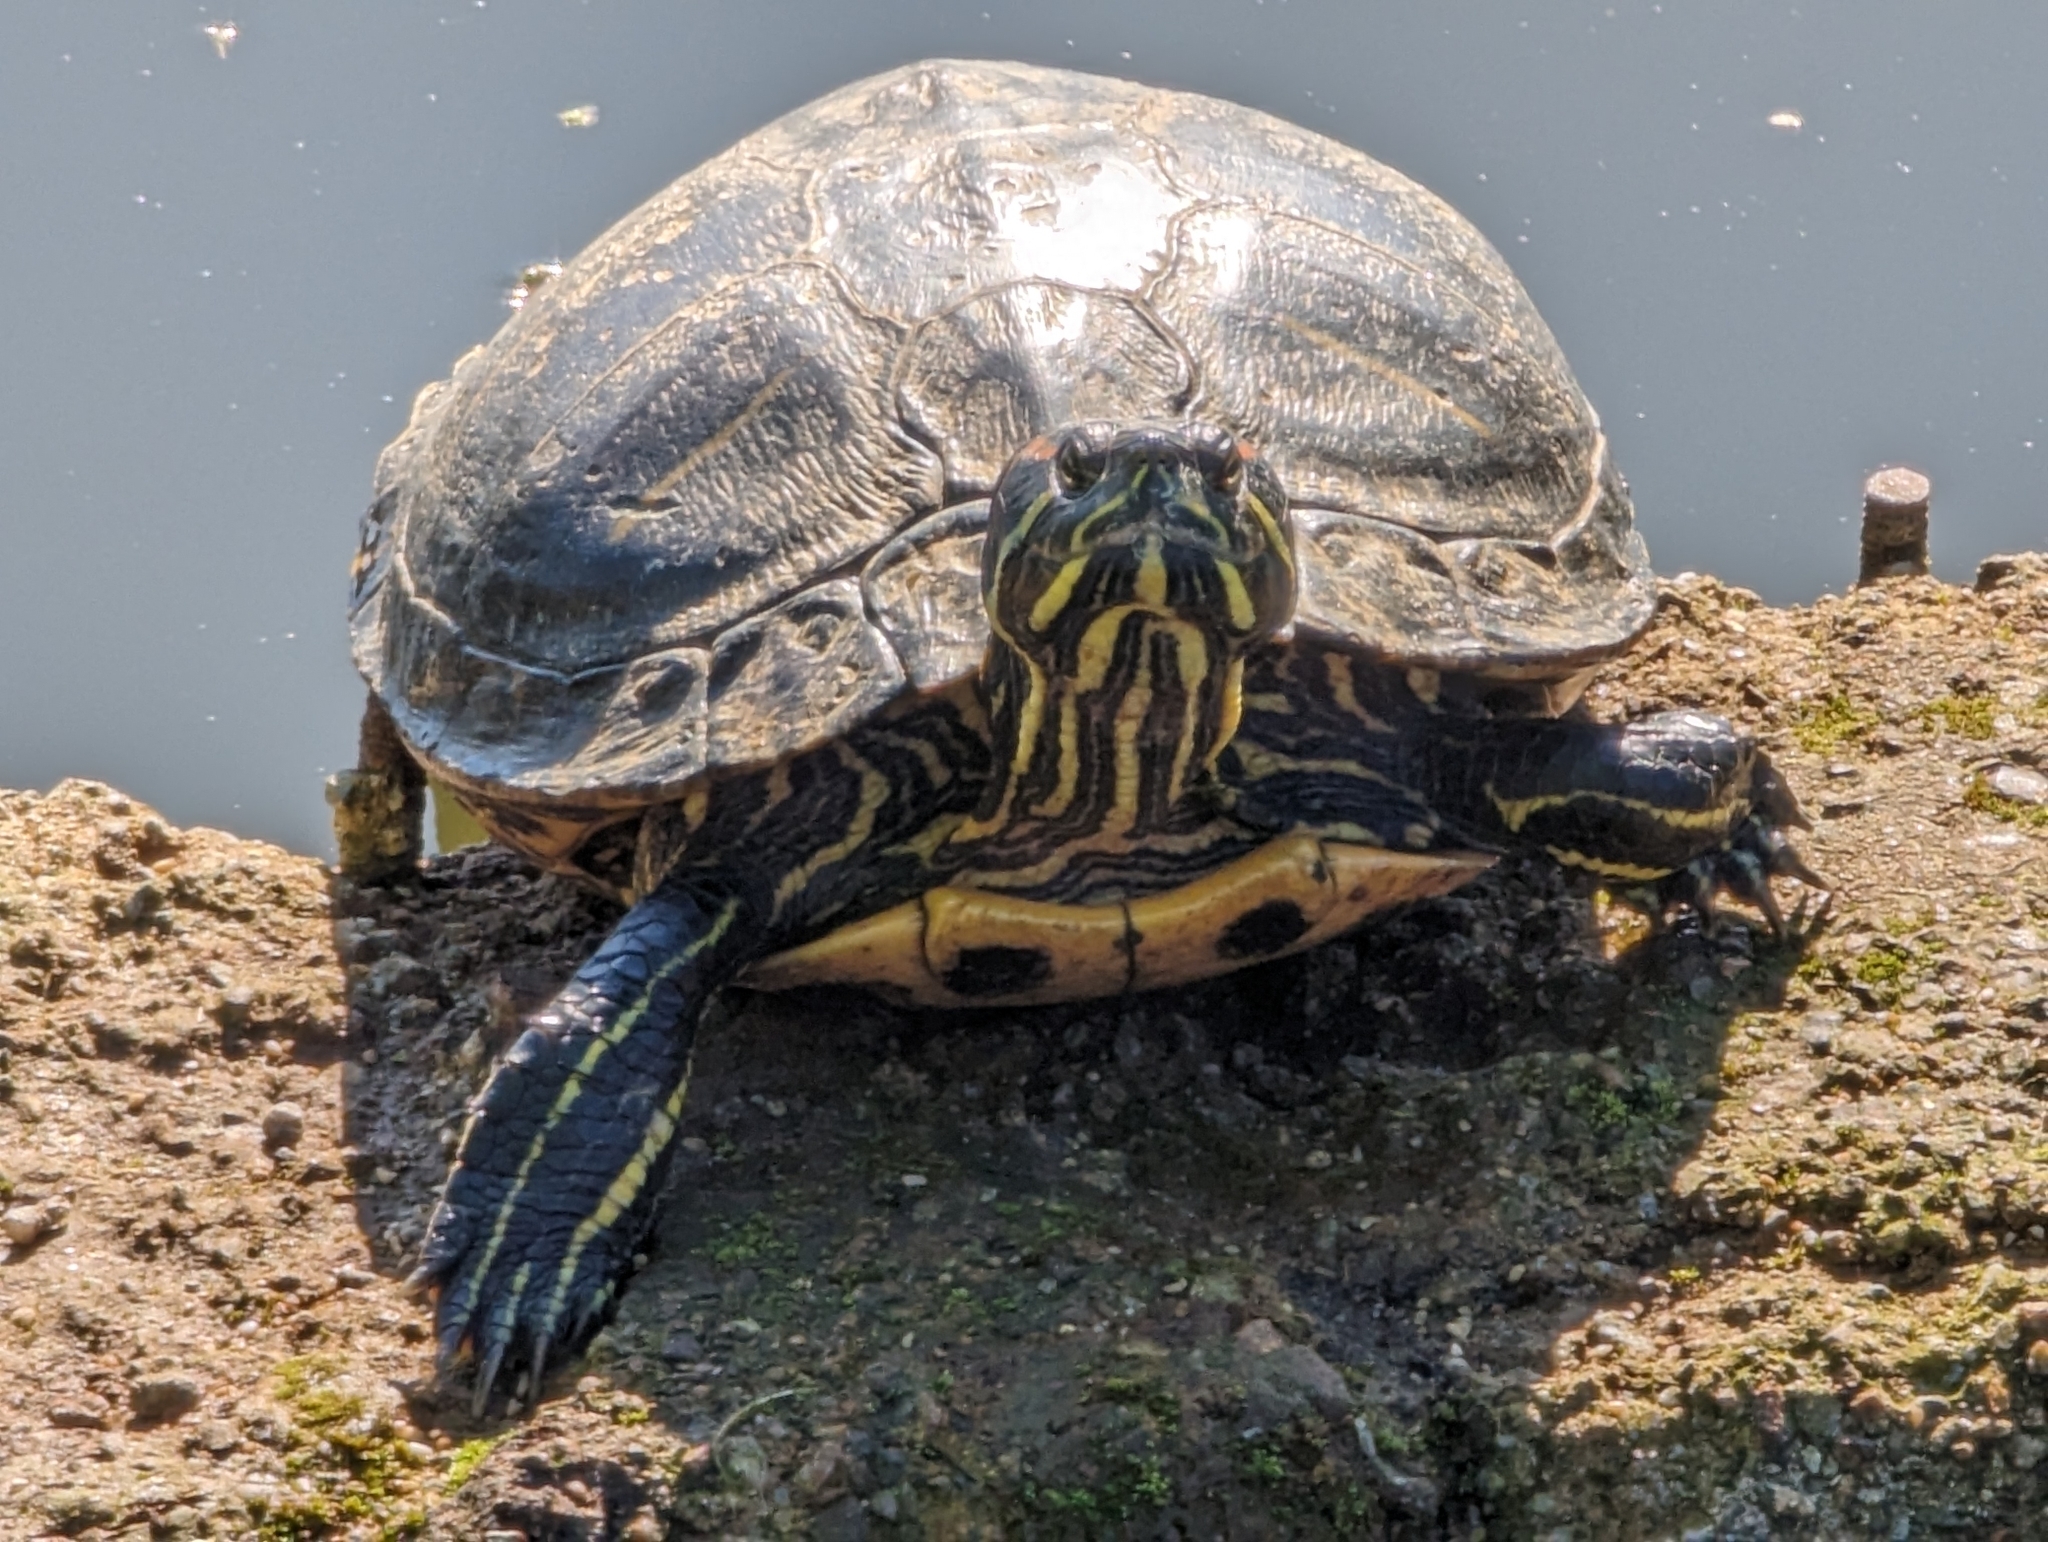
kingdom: Animalia
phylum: Chordata
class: Testudines
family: Emydidae
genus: Trachemys
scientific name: Trachemys scripta
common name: Slider
